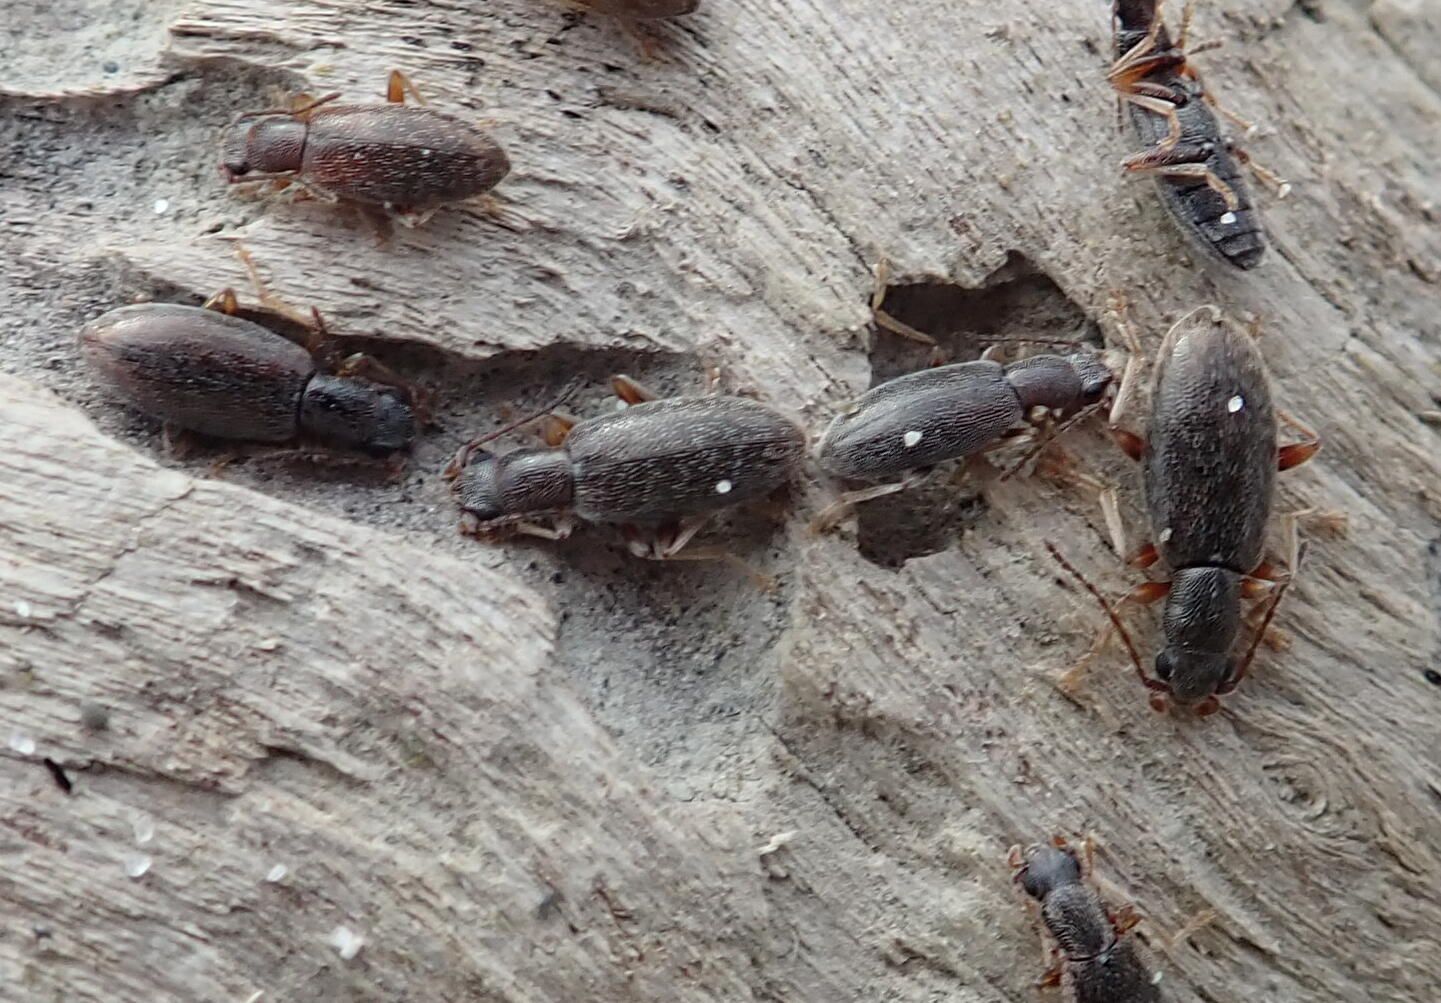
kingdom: Animalia
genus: Lagrioda
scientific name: Lagrioda brounii
